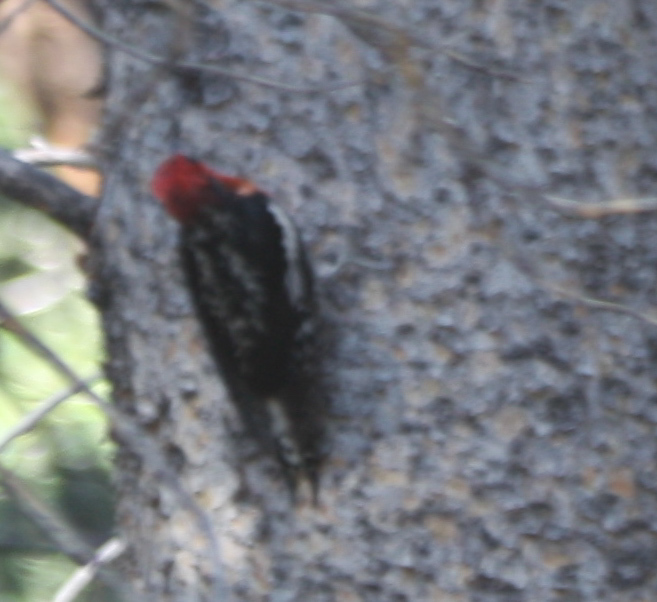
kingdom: Animalia
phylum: Chordata
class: Aves
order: Piciformes
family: Picidae
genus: Sphyrapicus
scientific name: Sphyrapicus ruber
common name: Red-breasted sapsucker
